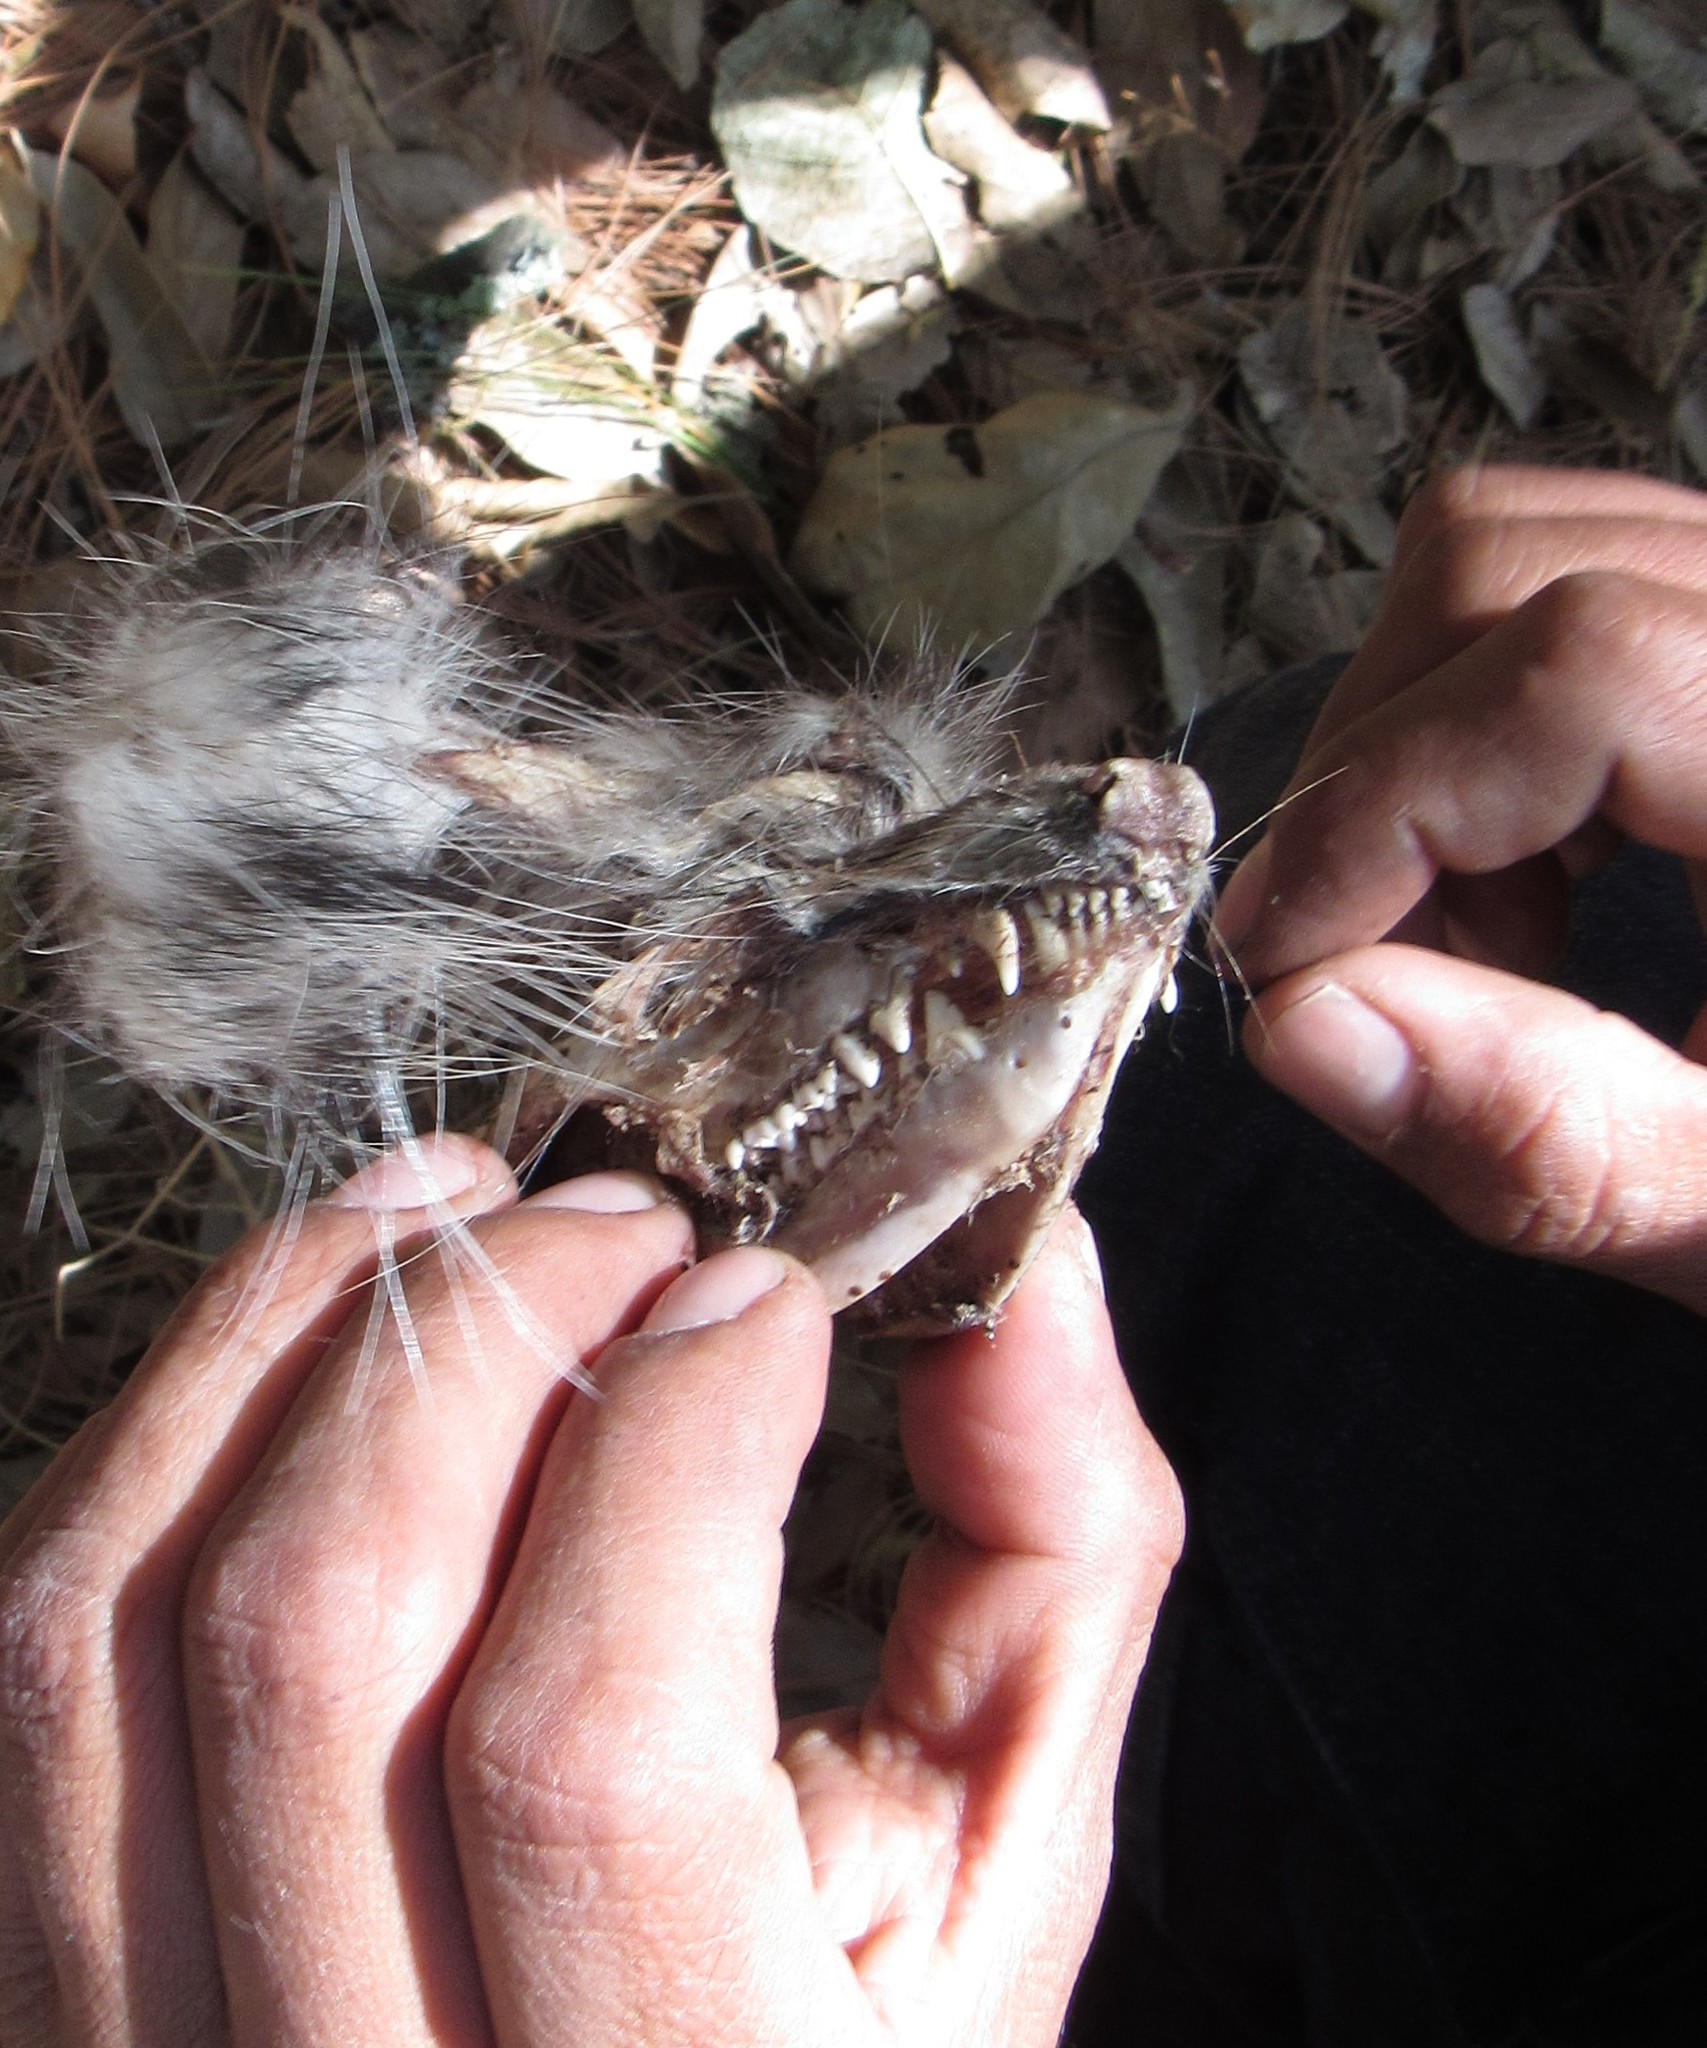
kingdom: Animalia
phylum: Chordata
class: Mammalia
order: Didelphimorphia
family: Didelphidae
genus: Didelphis
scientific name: Didelphis virginiana
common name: Virginia opossum
